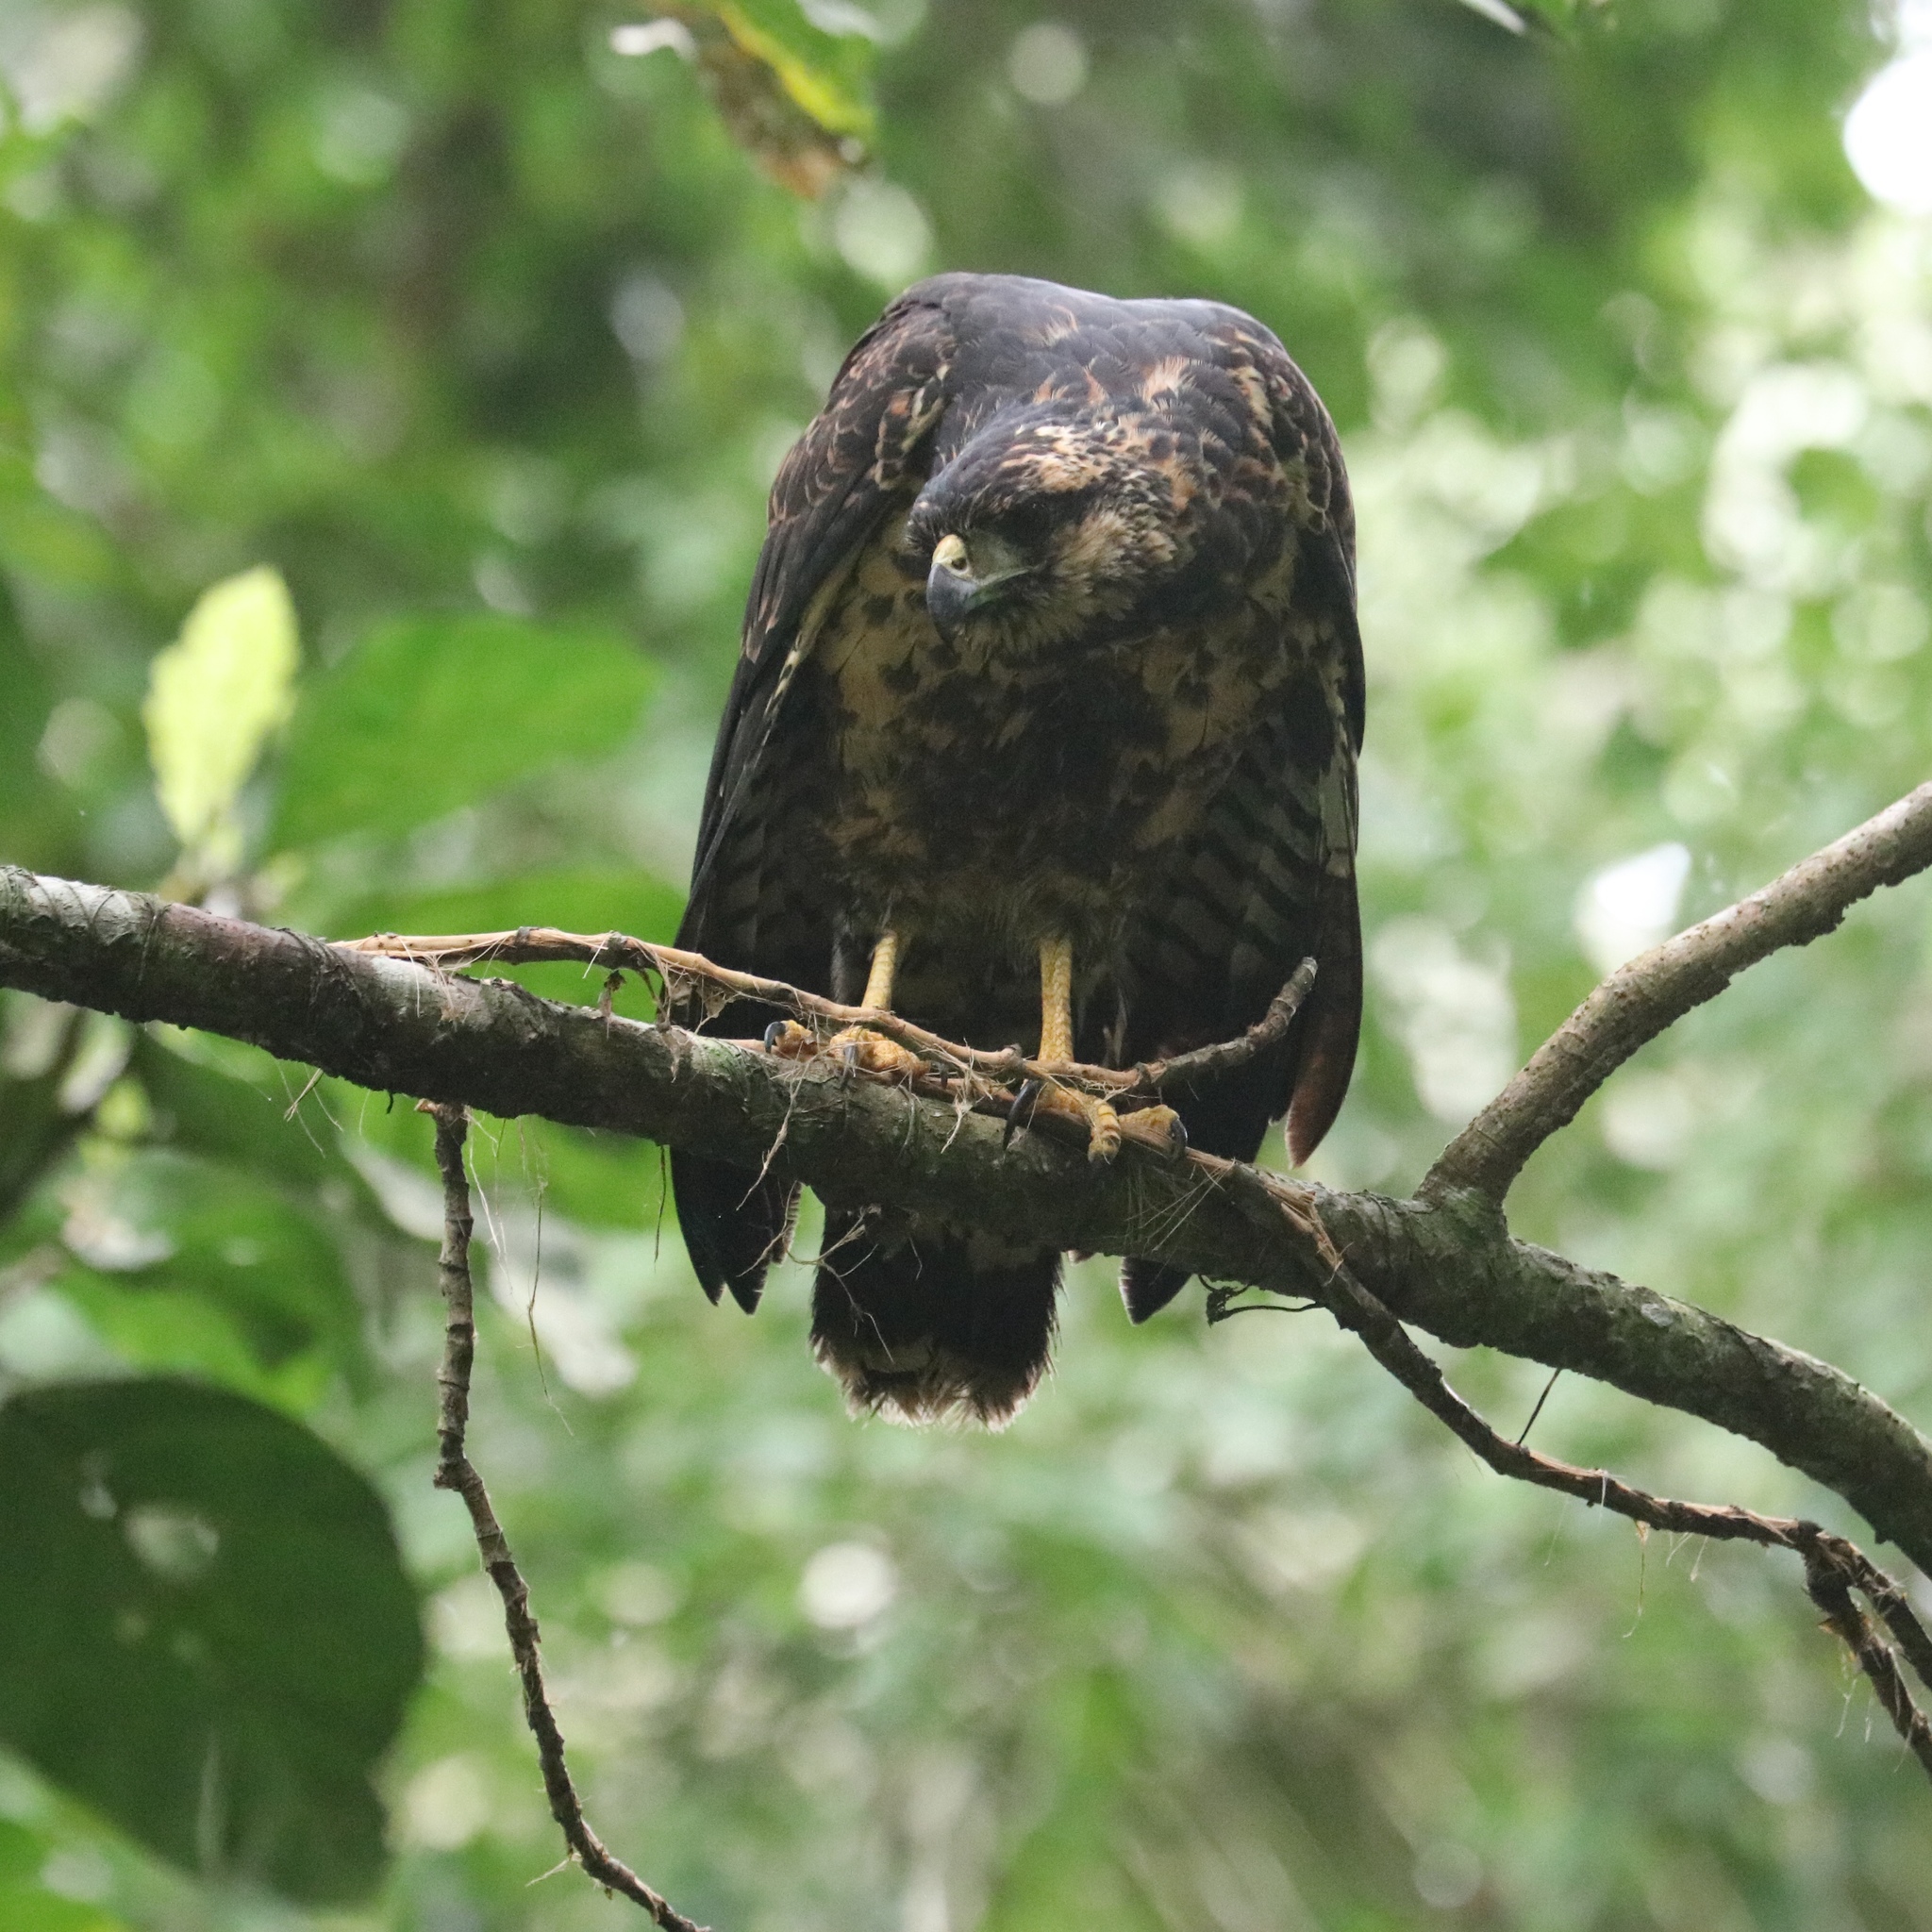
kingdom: Animalia
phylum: Chordata
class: Aves
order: Accipitriformes
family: Accipitridae
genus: Buteogallus
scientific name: Buteogallus urubitinga
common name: Great black hawk
